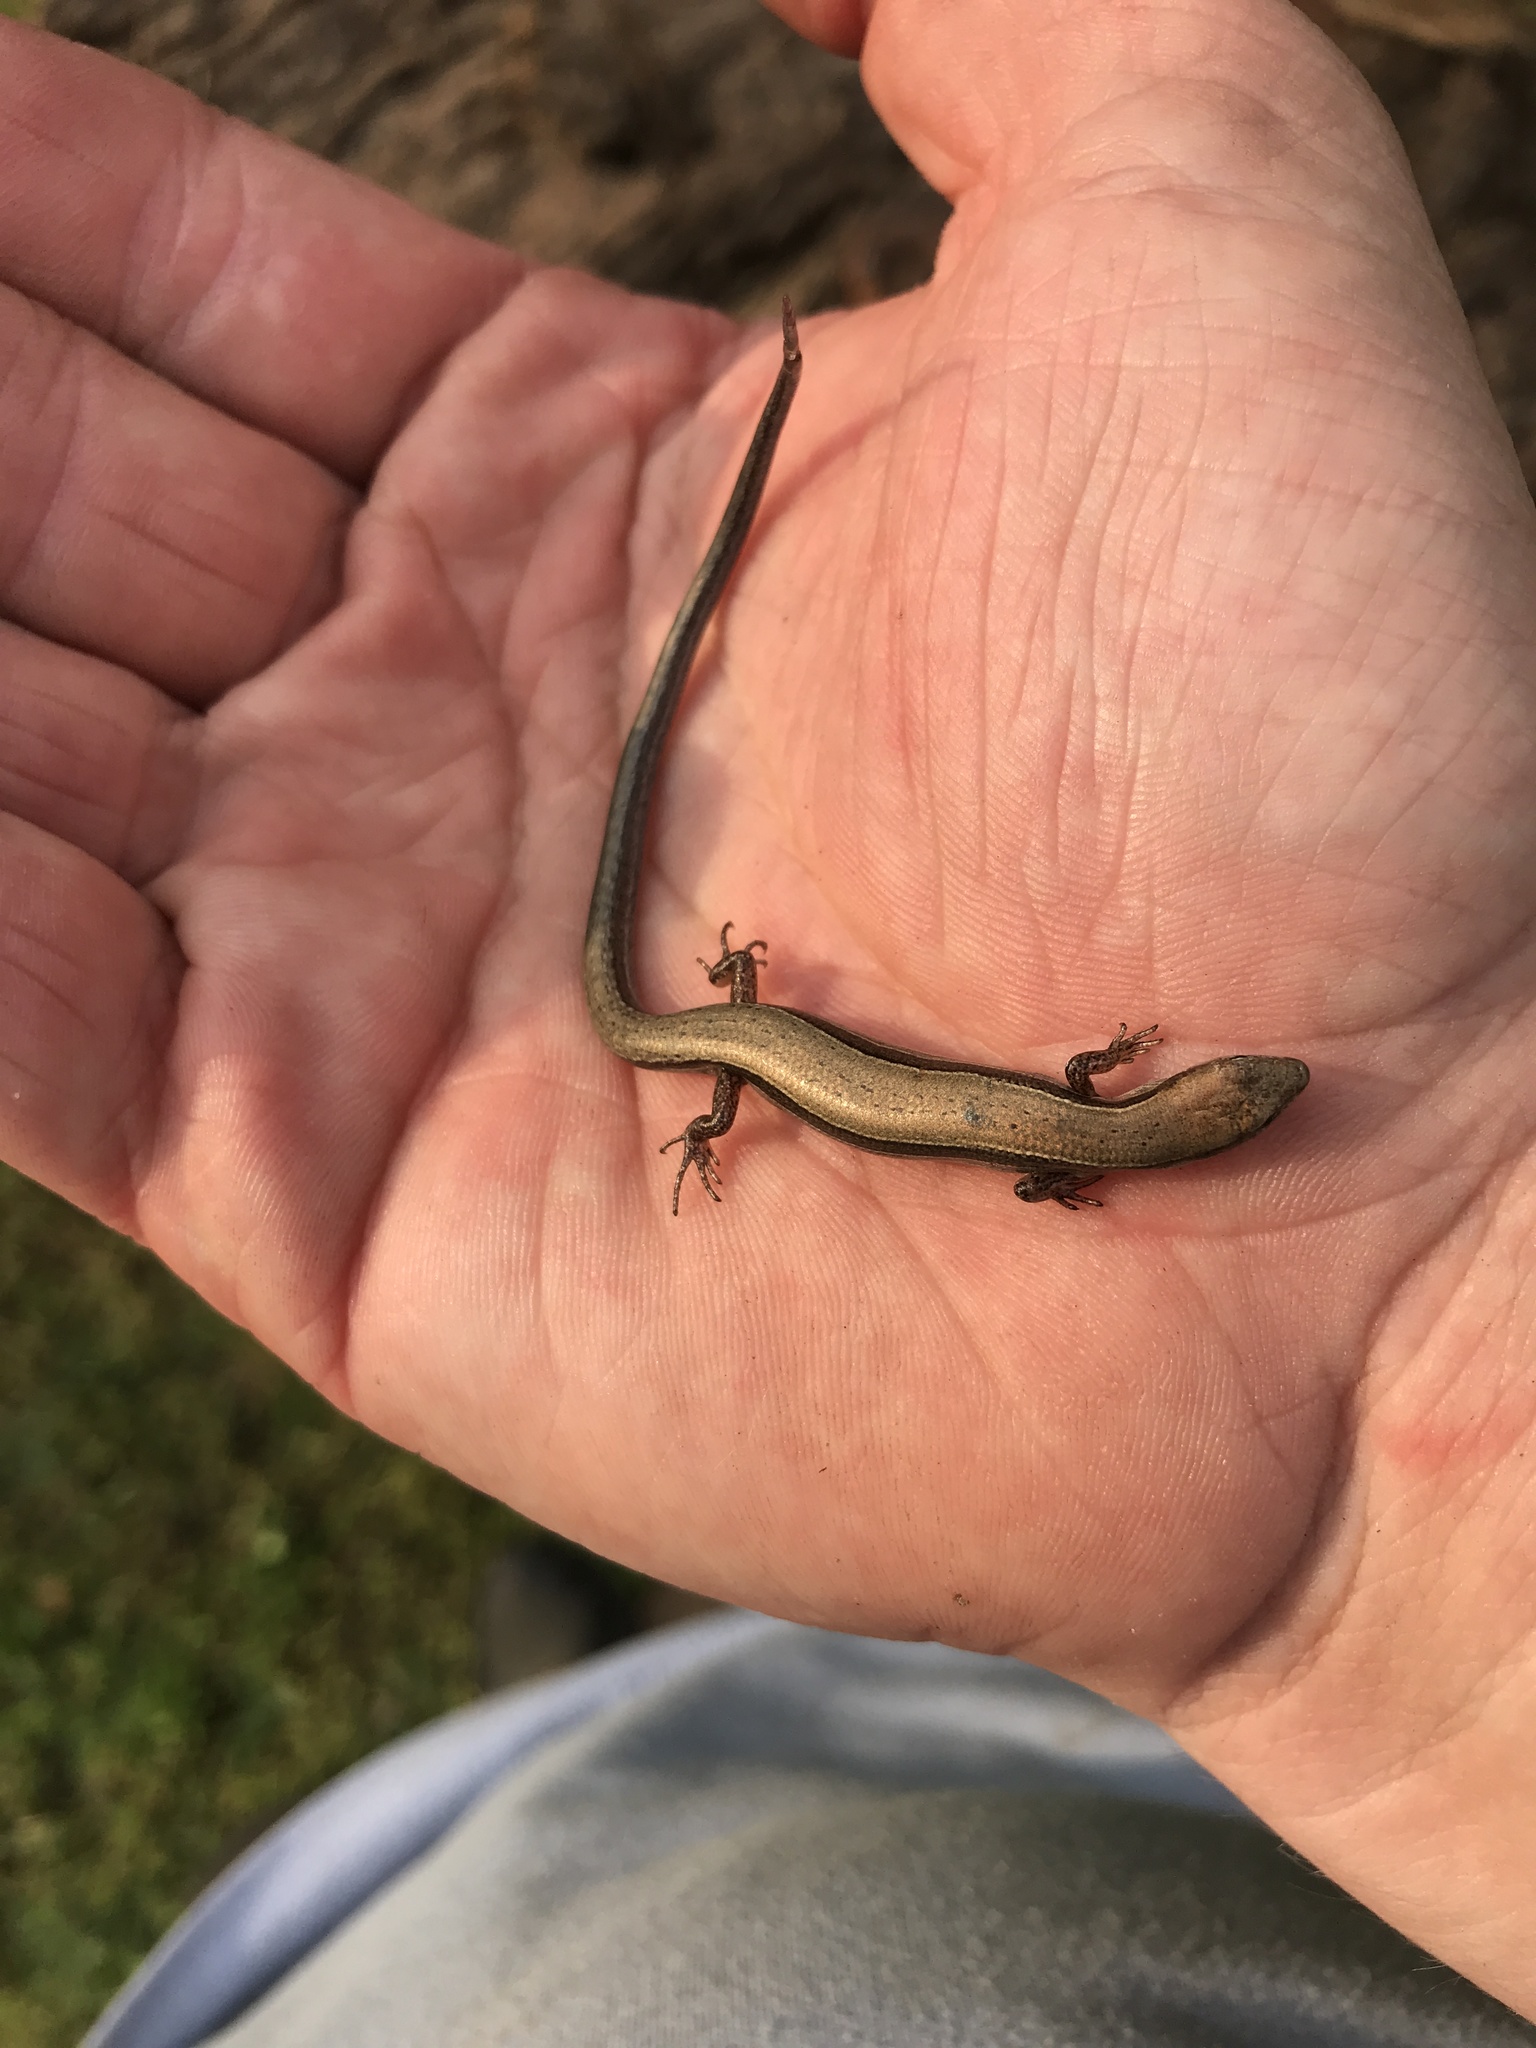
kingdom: Animalia
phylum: Chordata
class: Squamata
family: Scincidae
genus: Scincella
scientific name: Scincella lateralis
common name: Ground skink
